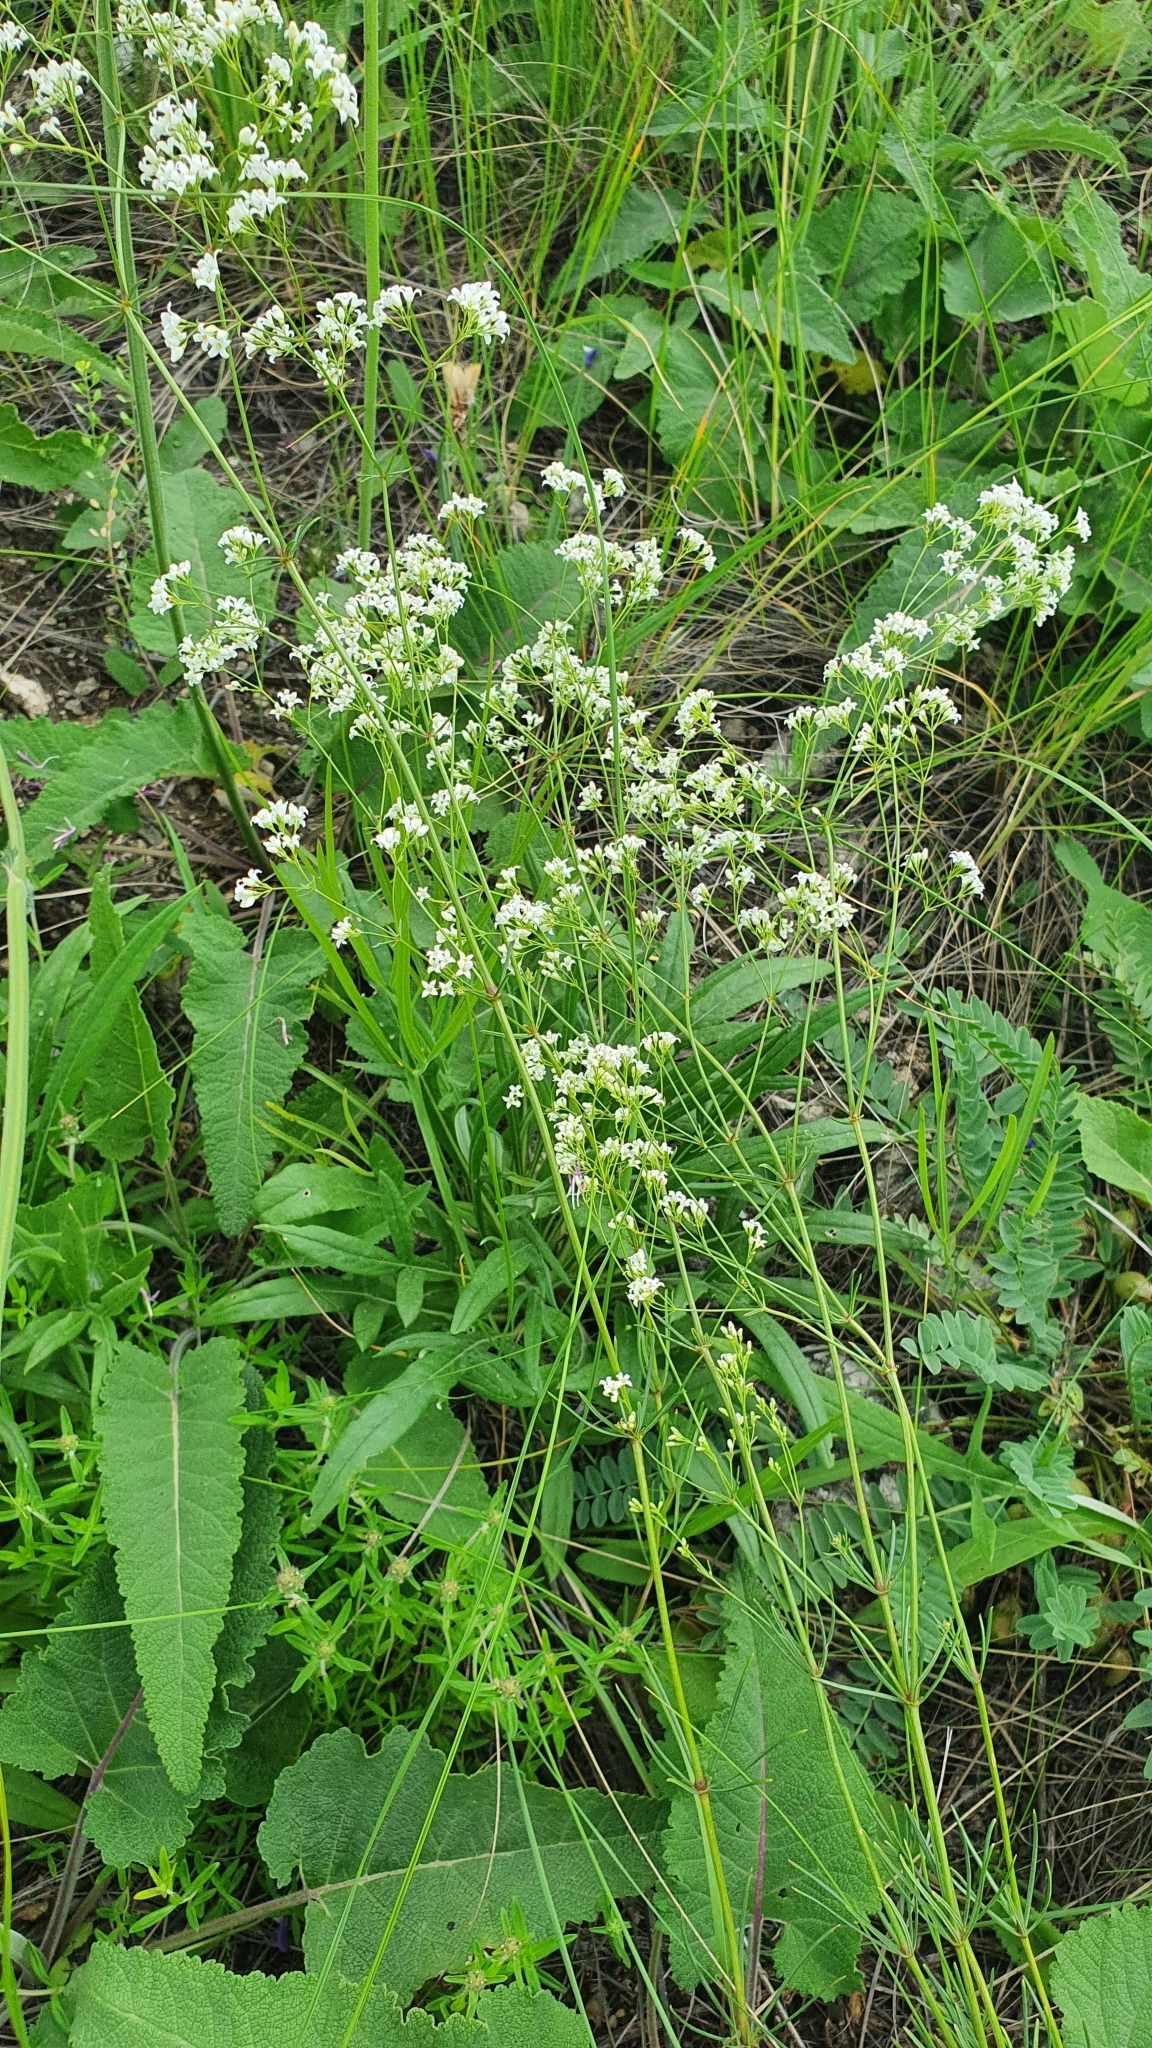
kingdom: Plantae
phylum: Tracheophyta
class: Magnoliopsida
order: Gentianales
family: Rubiaceae
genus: Galium
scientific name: Galium hexanarium
